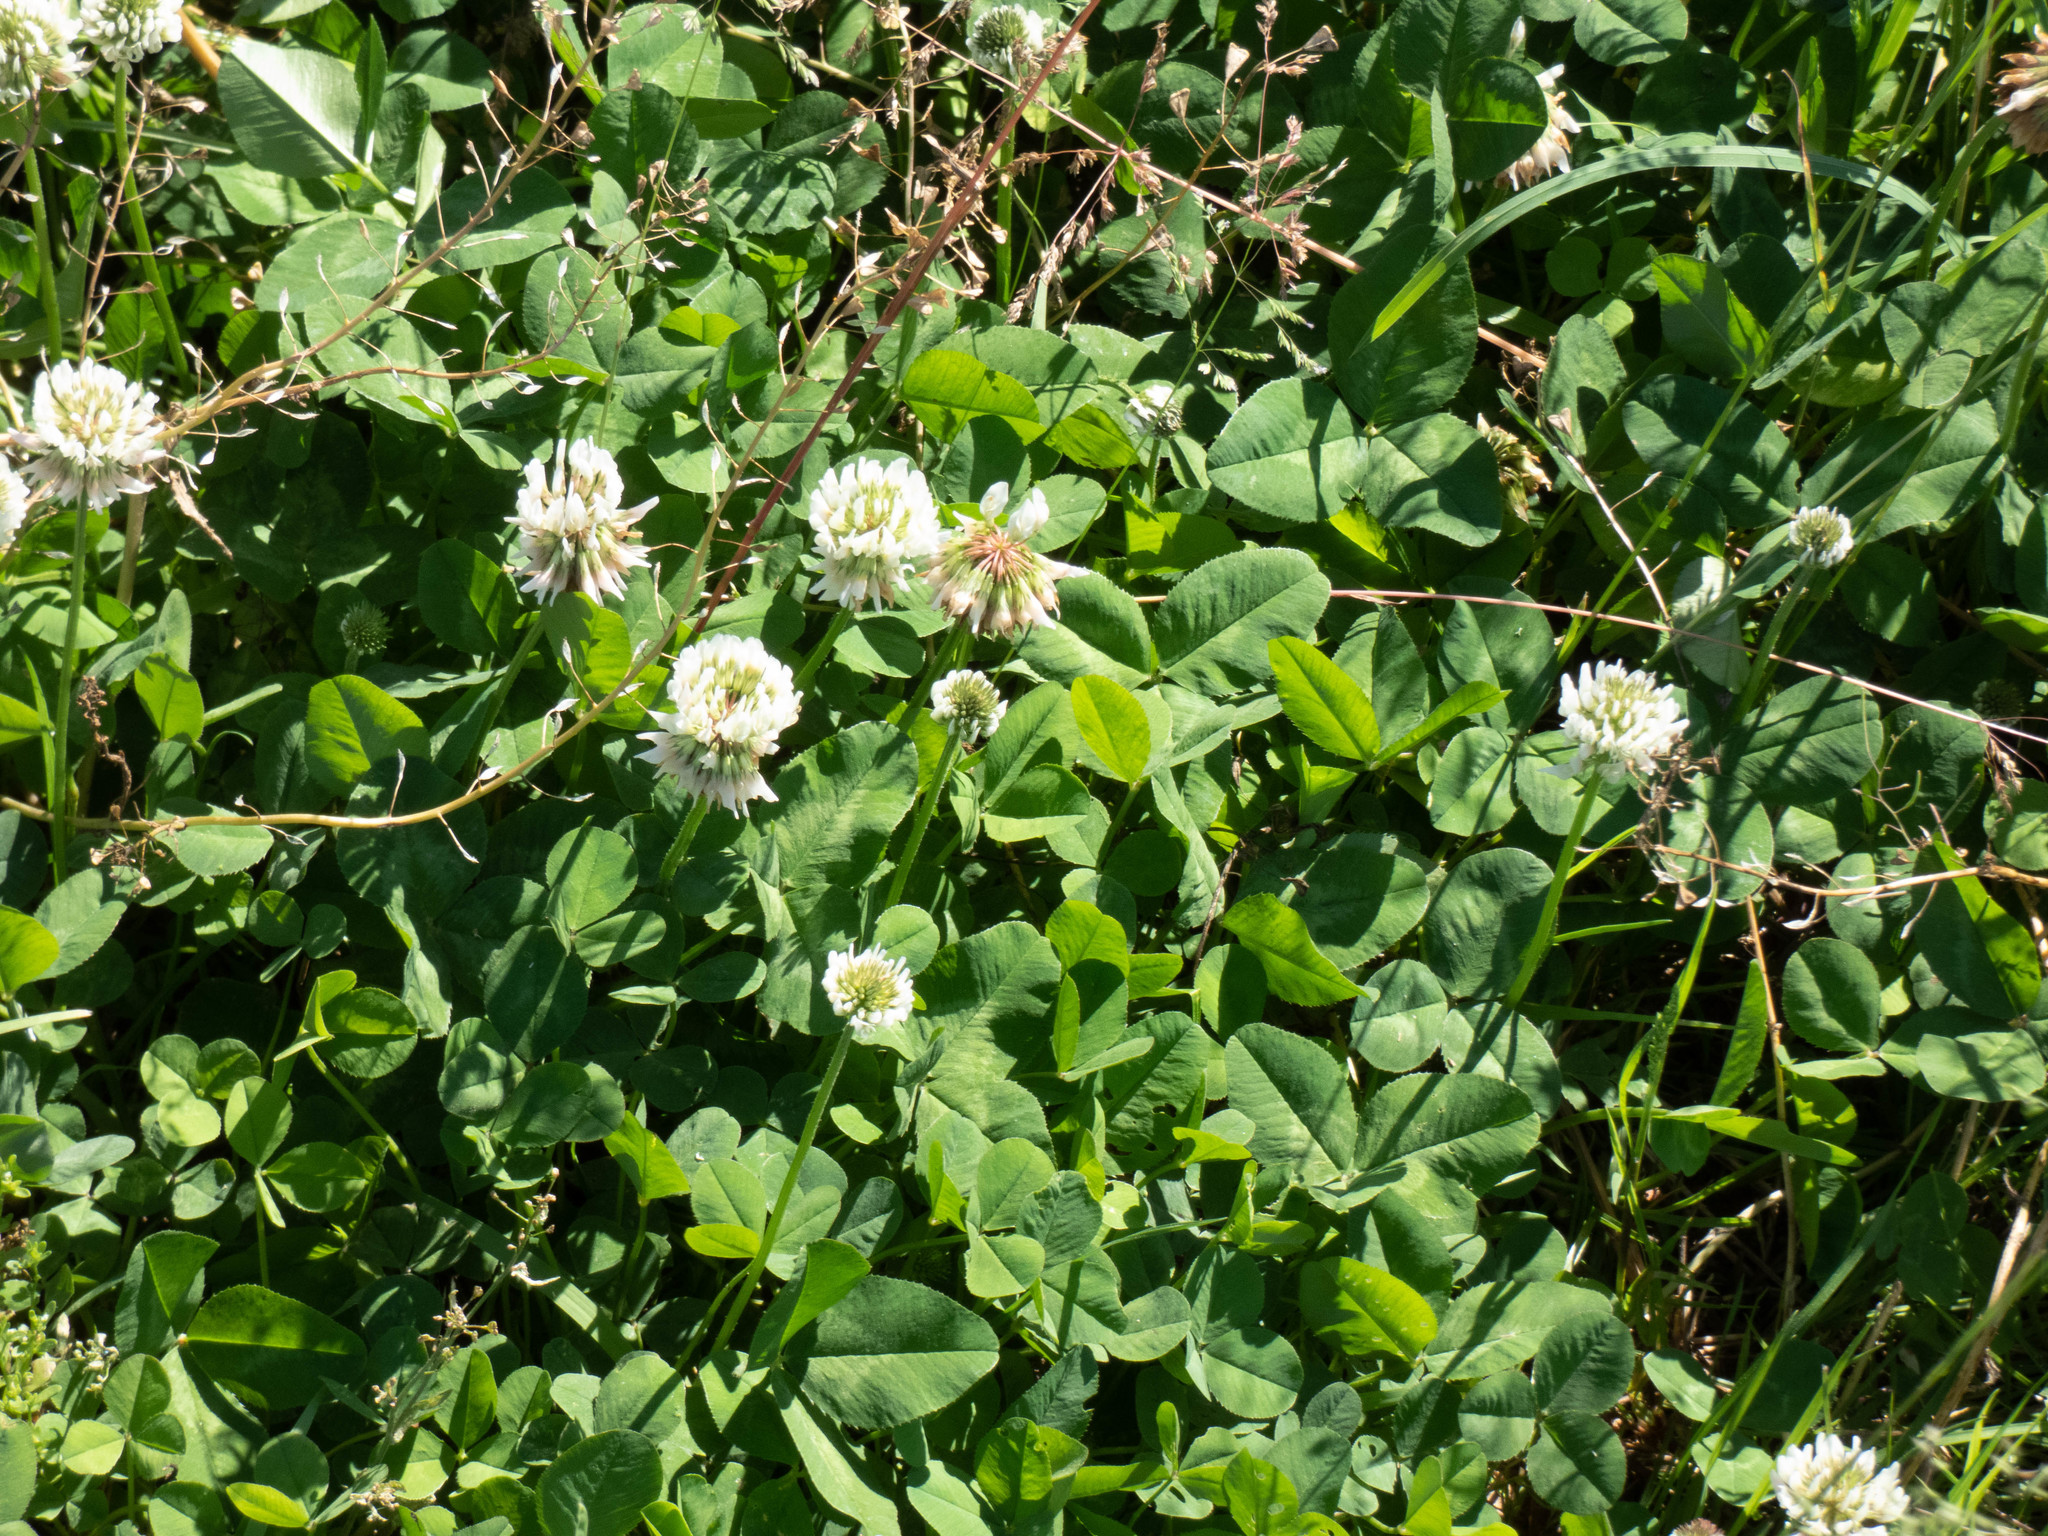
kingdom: Plantae
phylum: Tracheophyta
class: Magnoliopsida
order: Fabales
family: Fabaceae
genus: Trifolium
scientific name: Trifolium repens
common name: White clover
